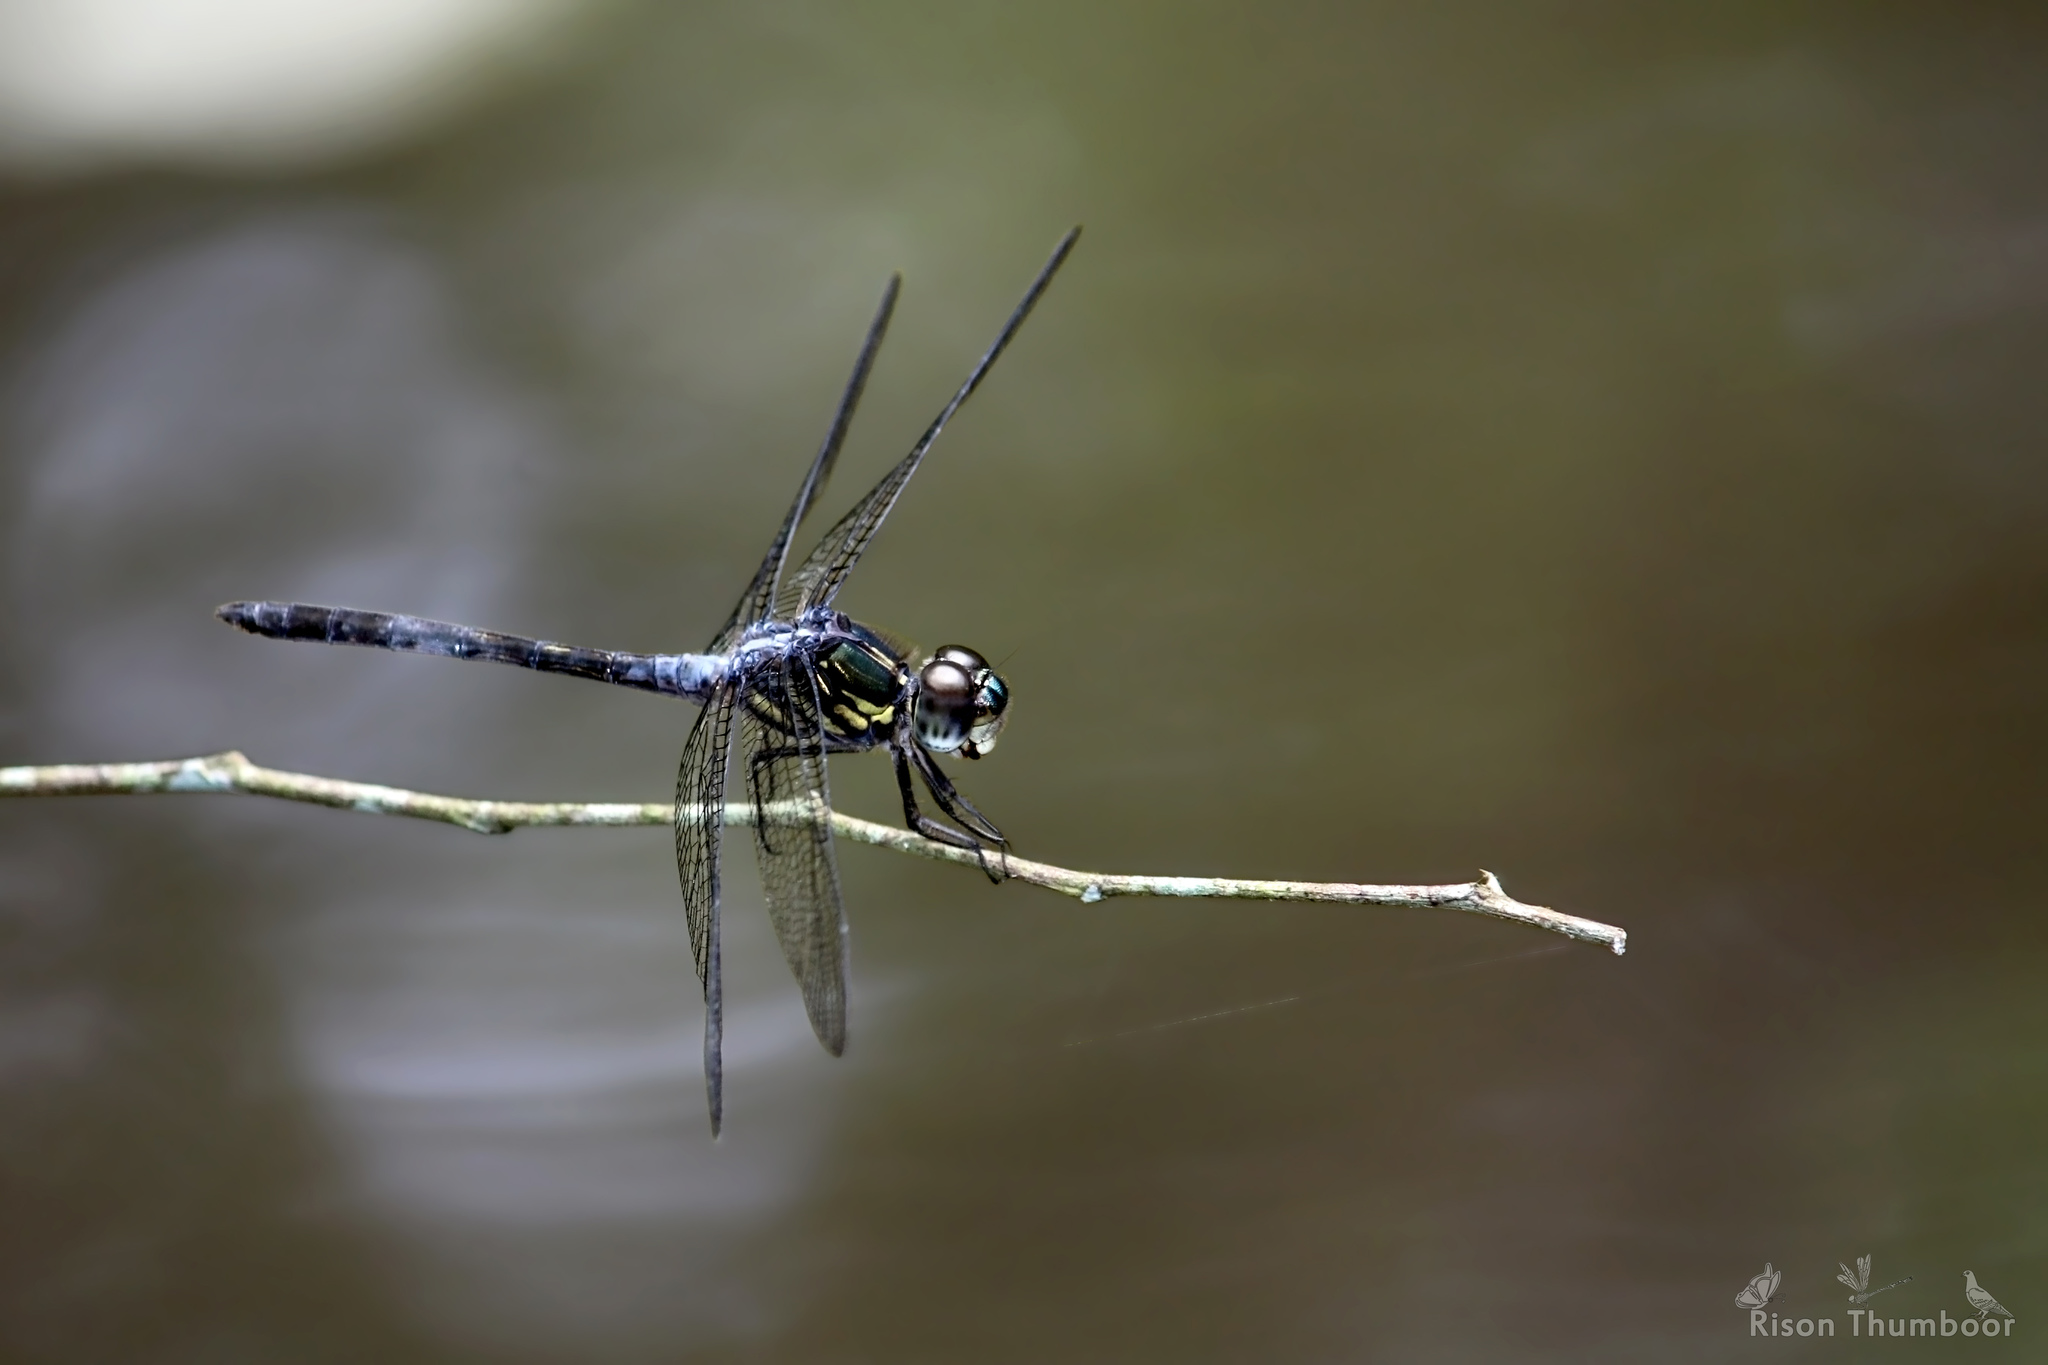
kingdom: Animalia
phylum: Arthropoda
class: Insecta
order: Odonata
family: Libellulidae
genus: Cratilla
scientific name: Cratilla lineata
